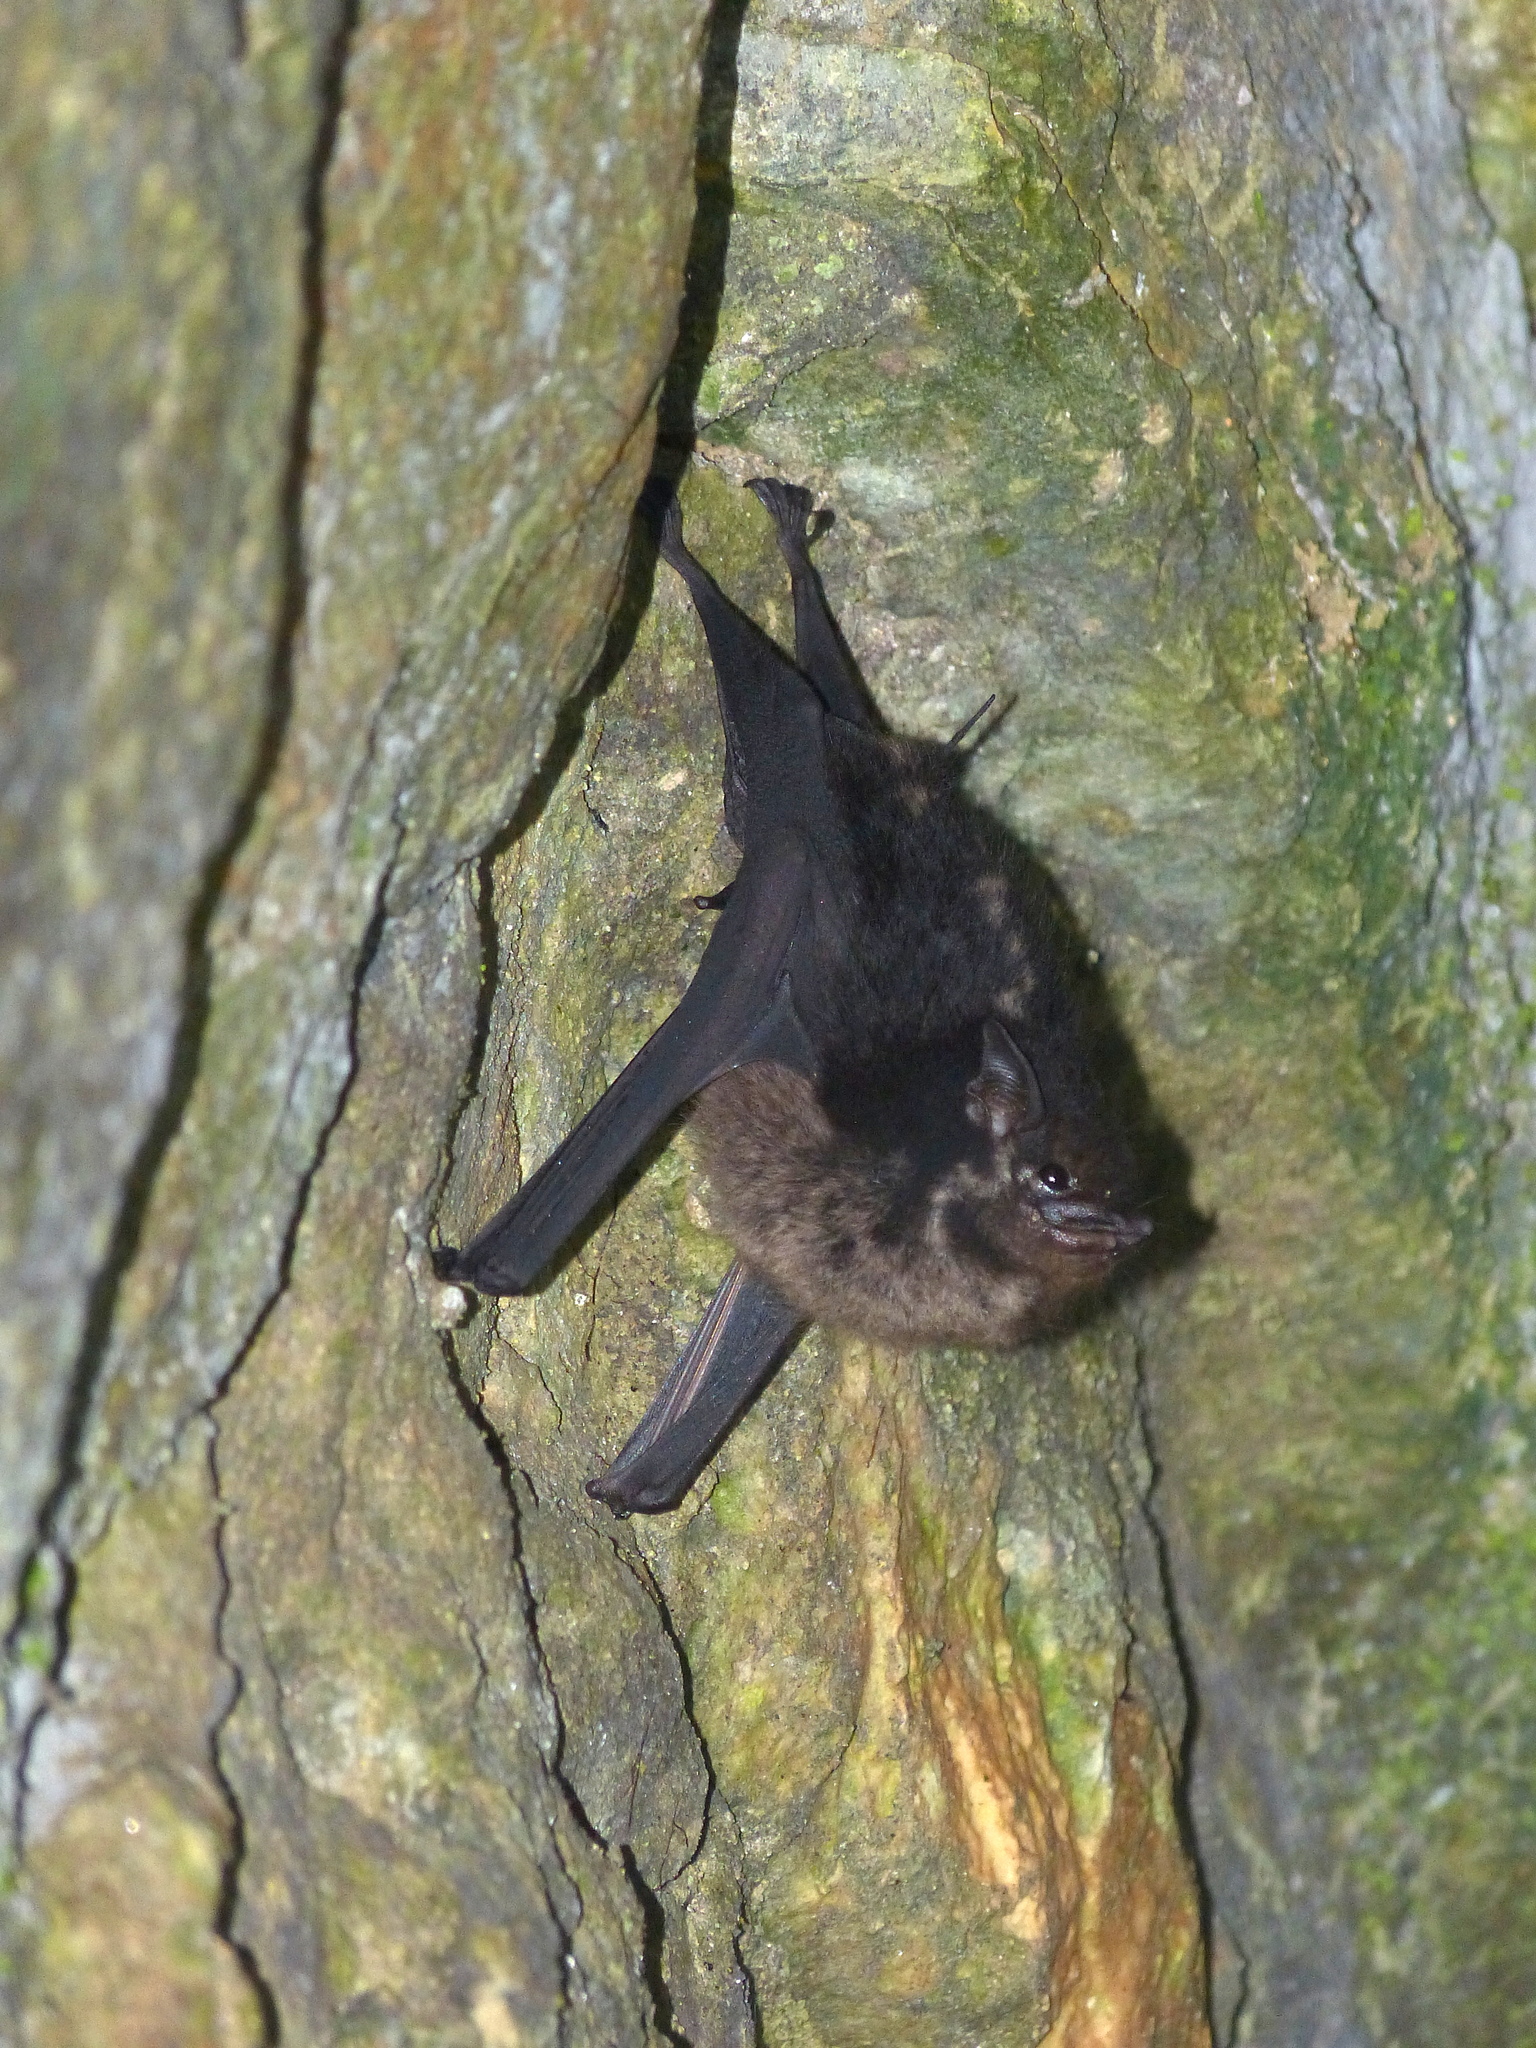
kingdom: Animalia
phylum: Chordata
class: Mammalia
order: Chiroptera
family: Emballonuridae
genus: Saccopteryx
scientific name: Saccopteryx bilineata
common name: Greater sac-winged bat
